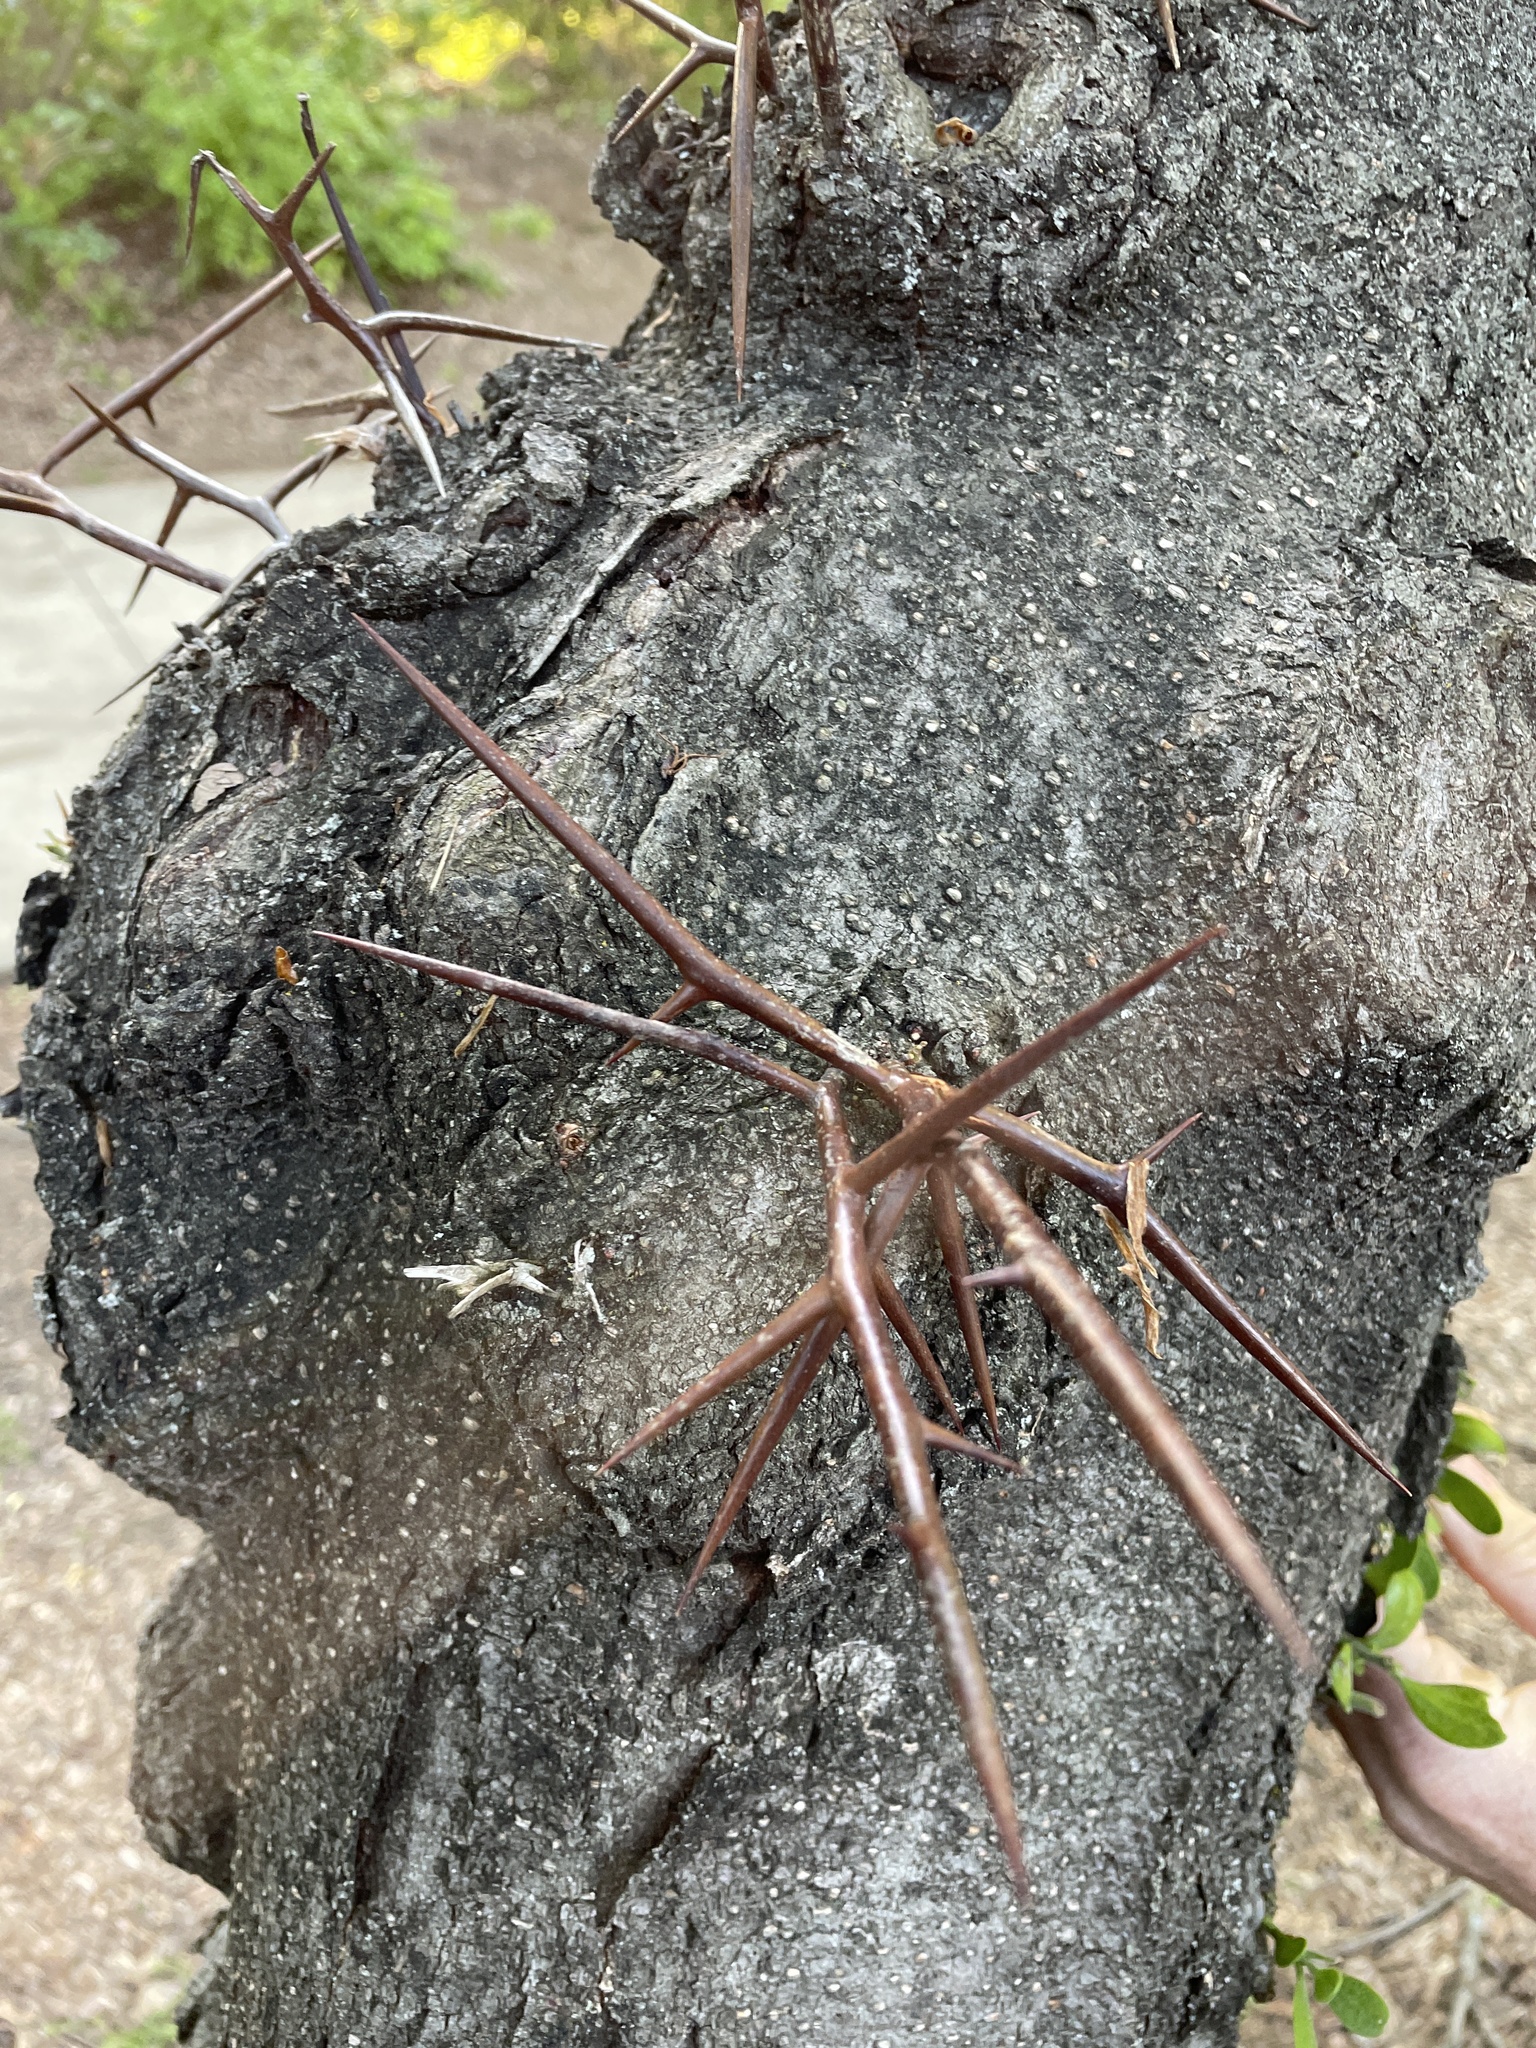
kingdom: Plantae
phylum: Tracheophyta
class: Magnoliopsida
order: Fabales
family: Fabaceae
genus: Gleditsia
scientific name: Gleditsia triacanthos
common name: Common honeylocust
